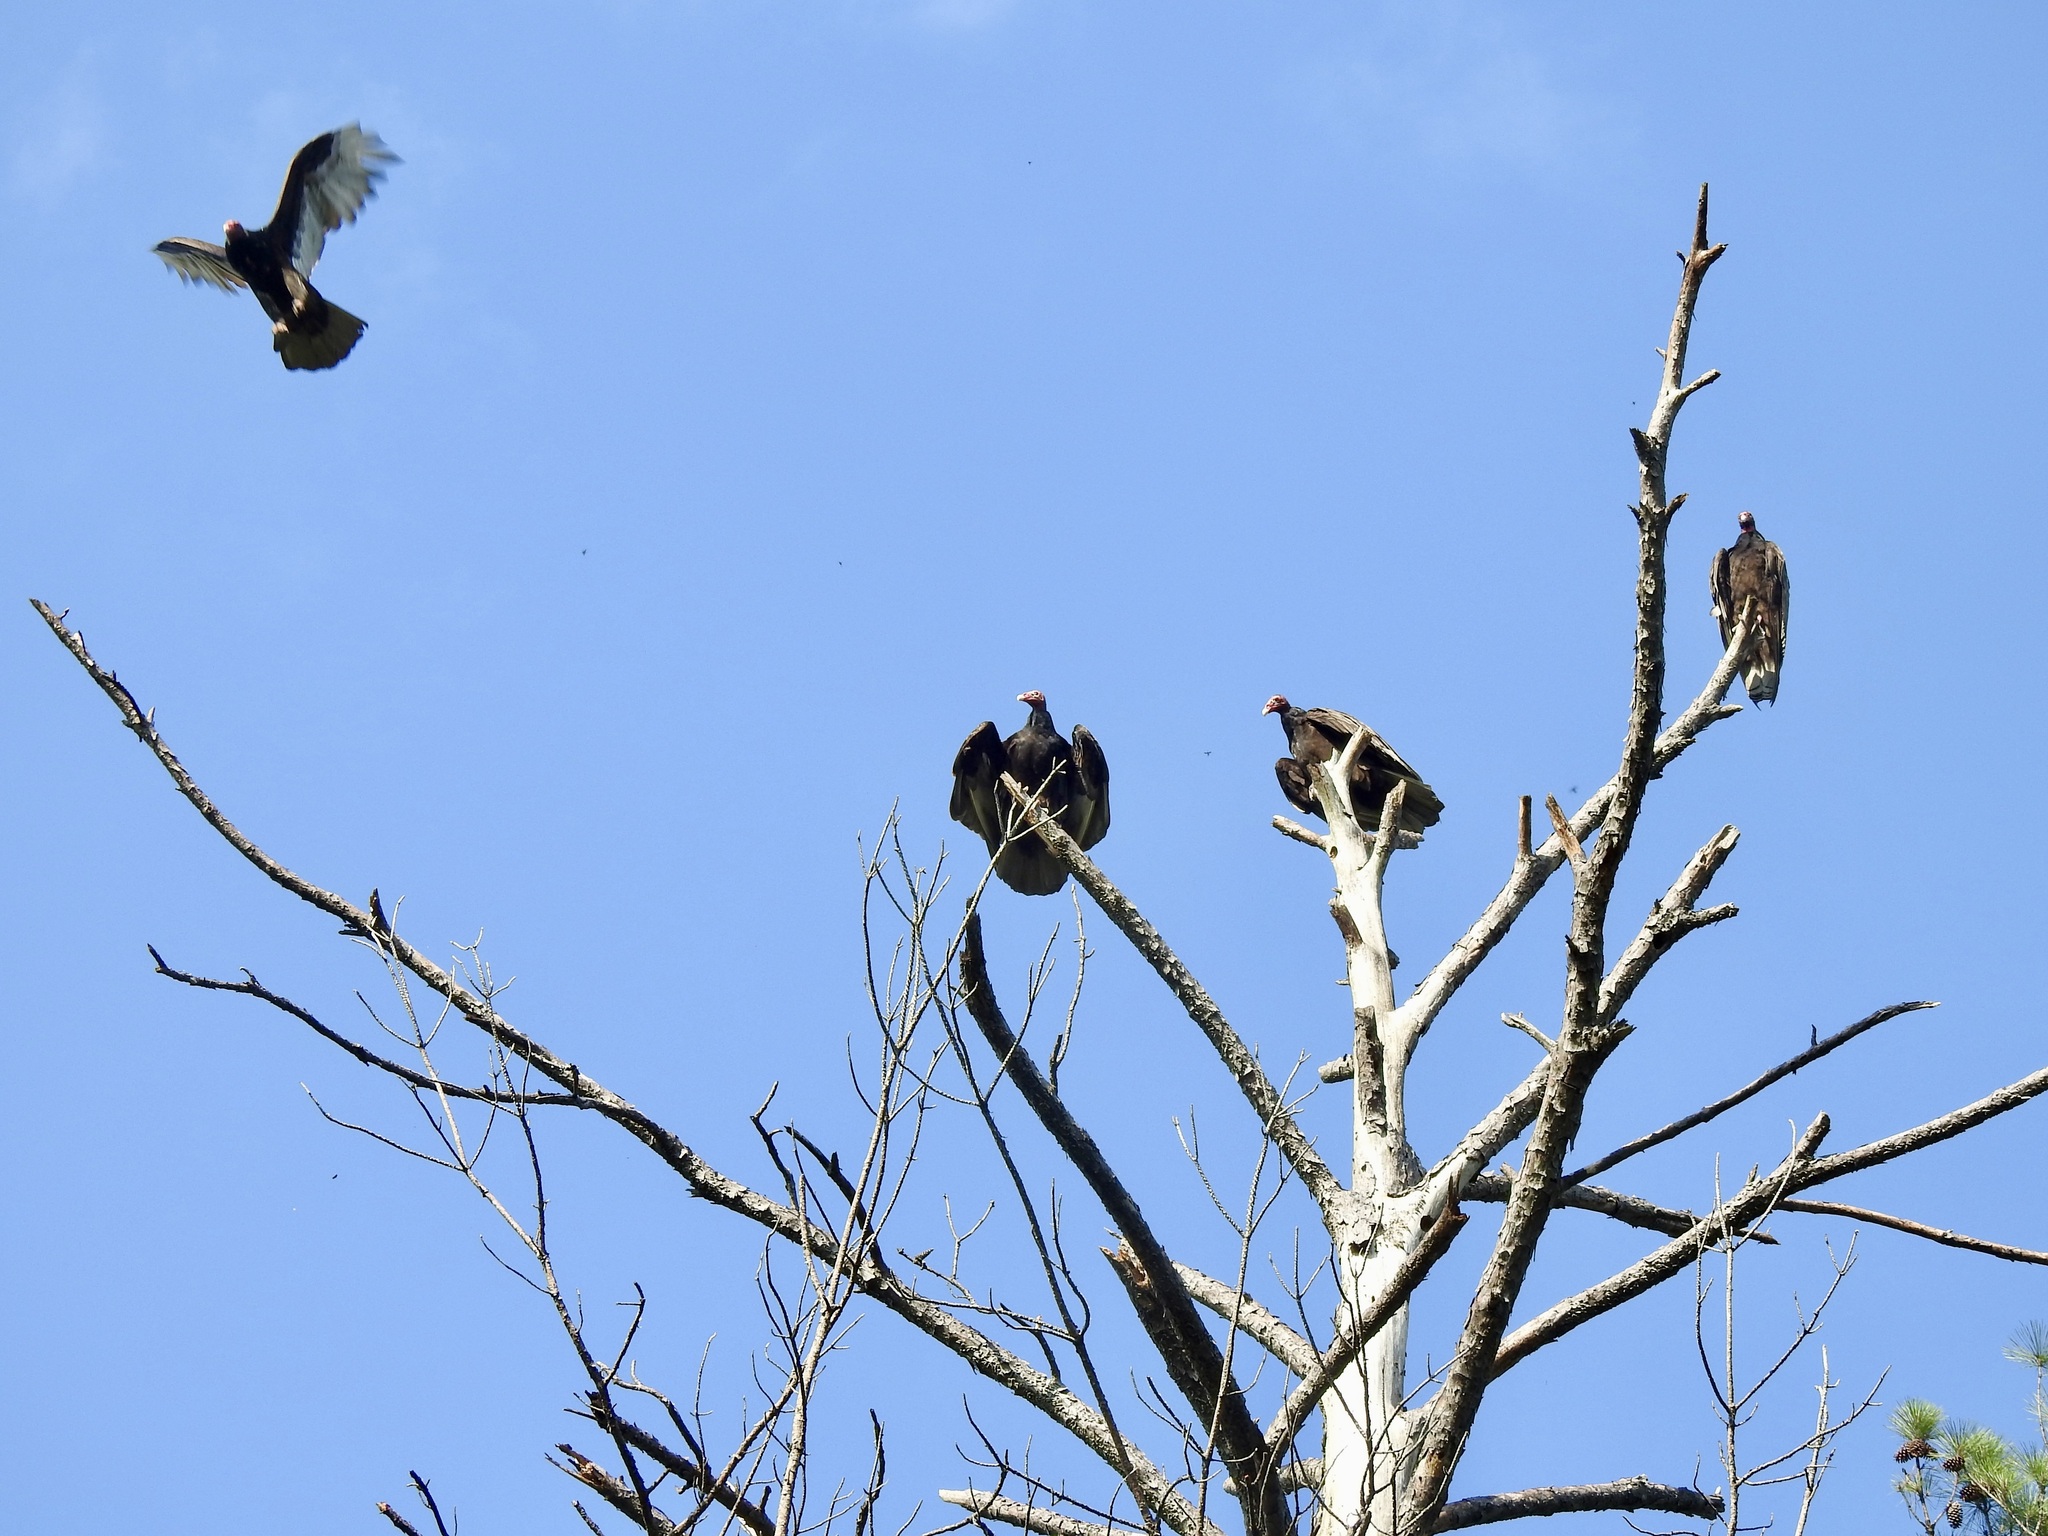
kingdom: Animalia
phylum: Chordata
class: Aves
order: Accipitriformes
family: Cathartidae
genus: Cathartes
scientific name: Cathartes aura
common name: Turkey vulture
